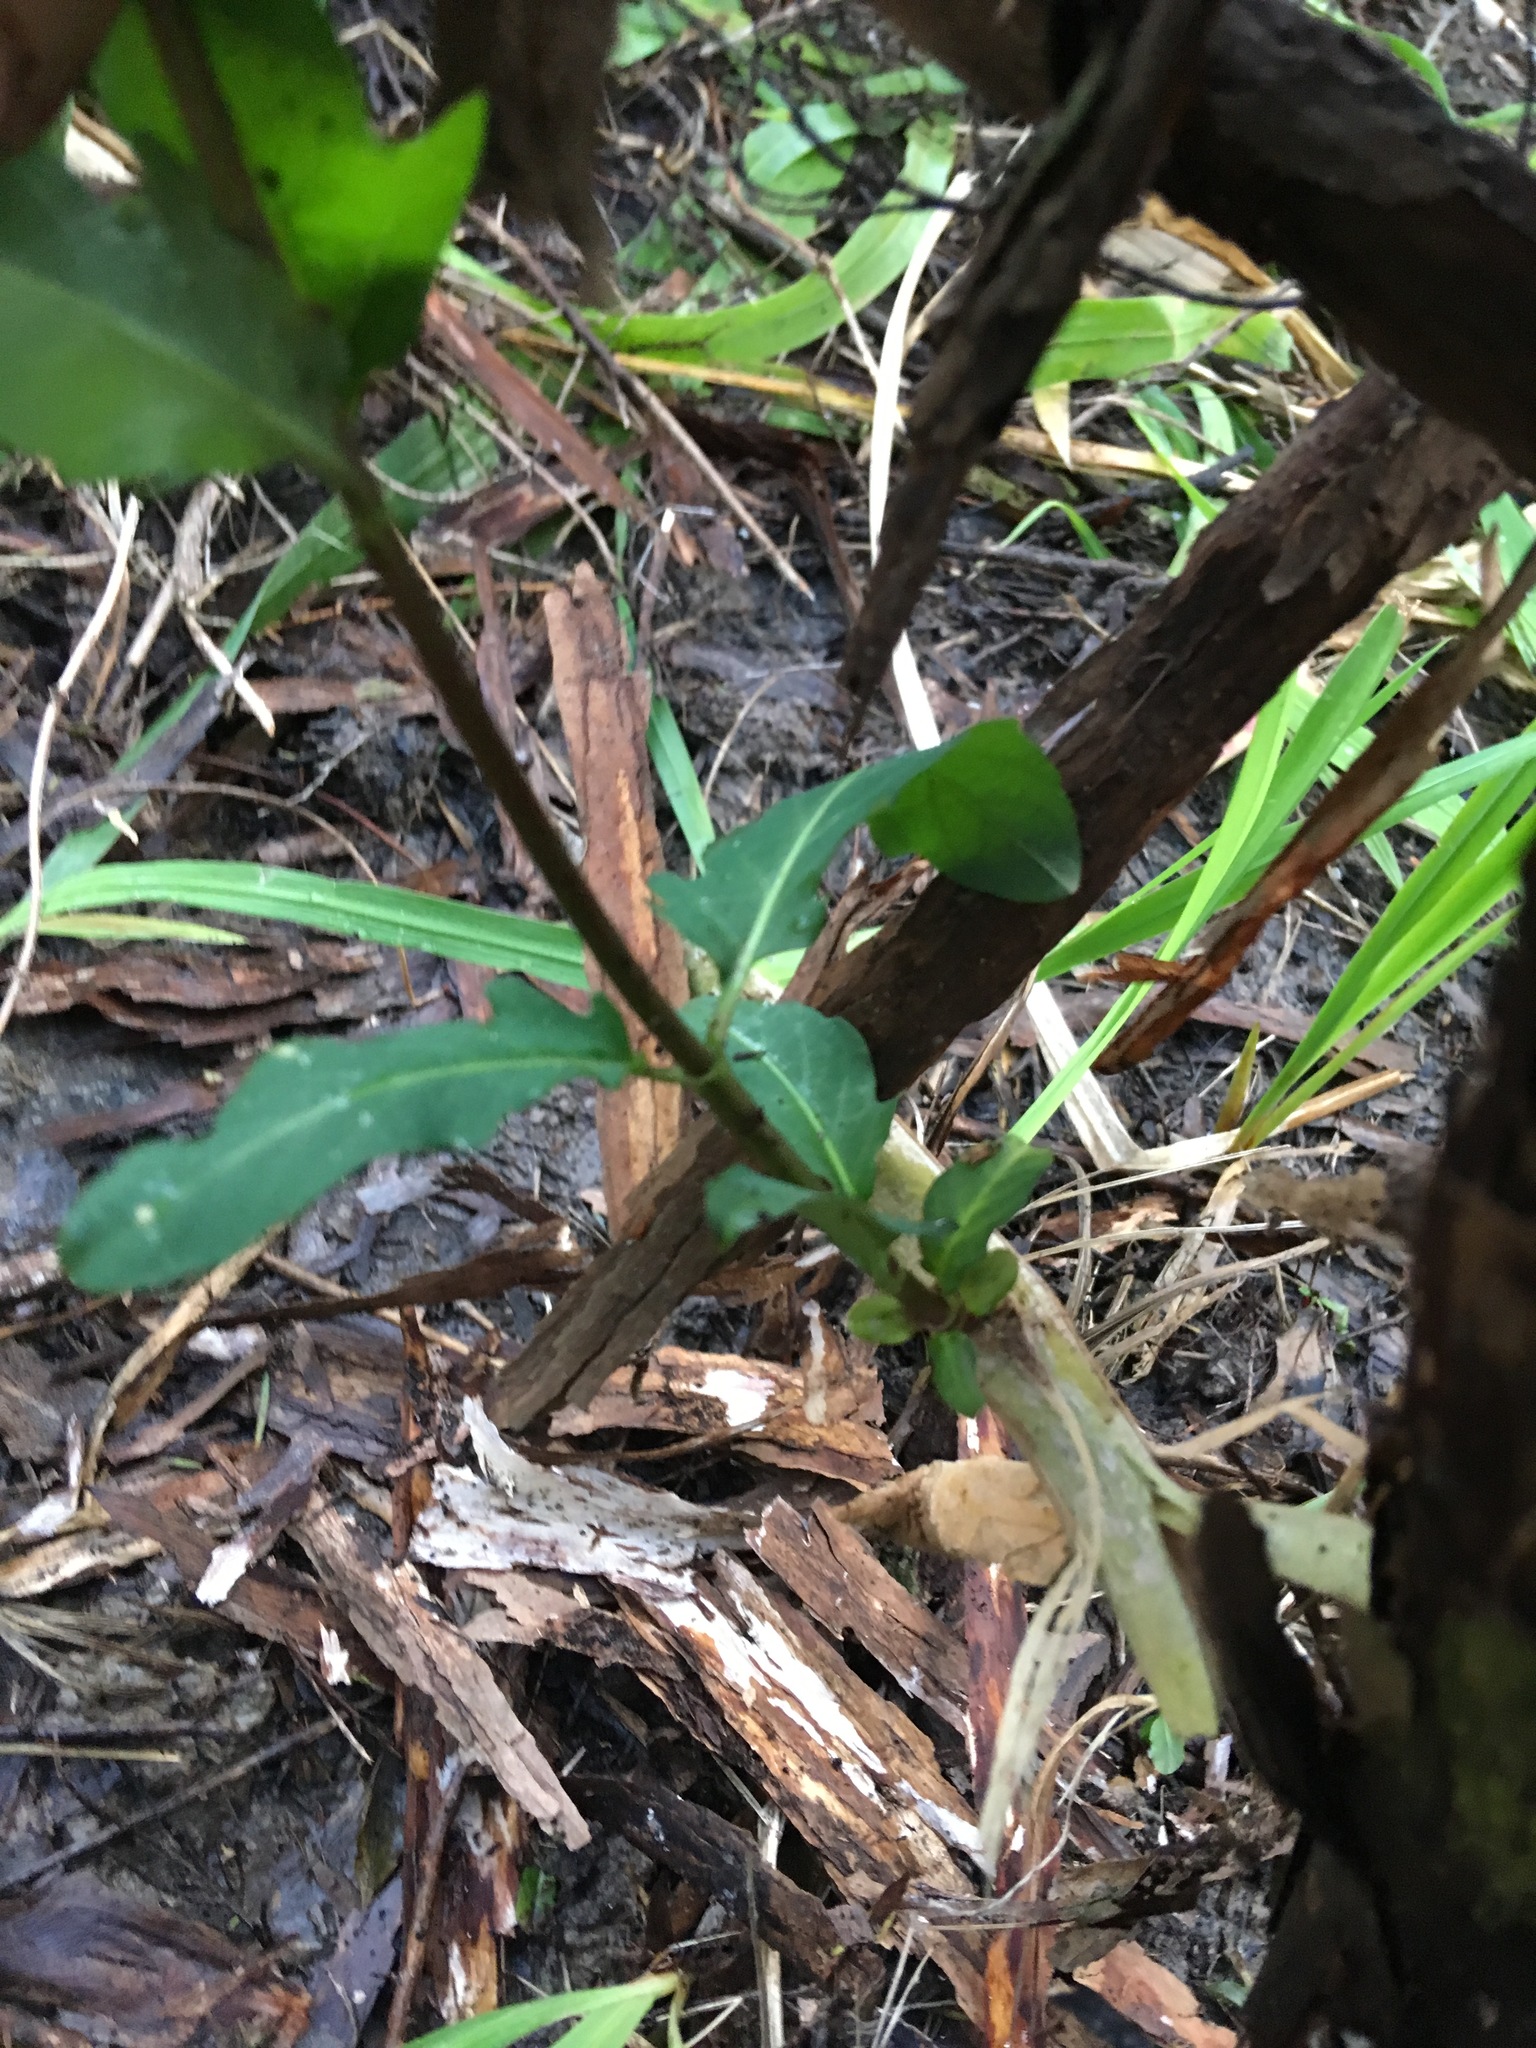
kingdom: Plantae
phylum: Tracheophyta
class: Magnoliopsida
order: Dipsacales
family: Caprifoliaceae
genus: Lonicera
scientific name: Lonicera japonica
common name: Japanese honeysuckle
